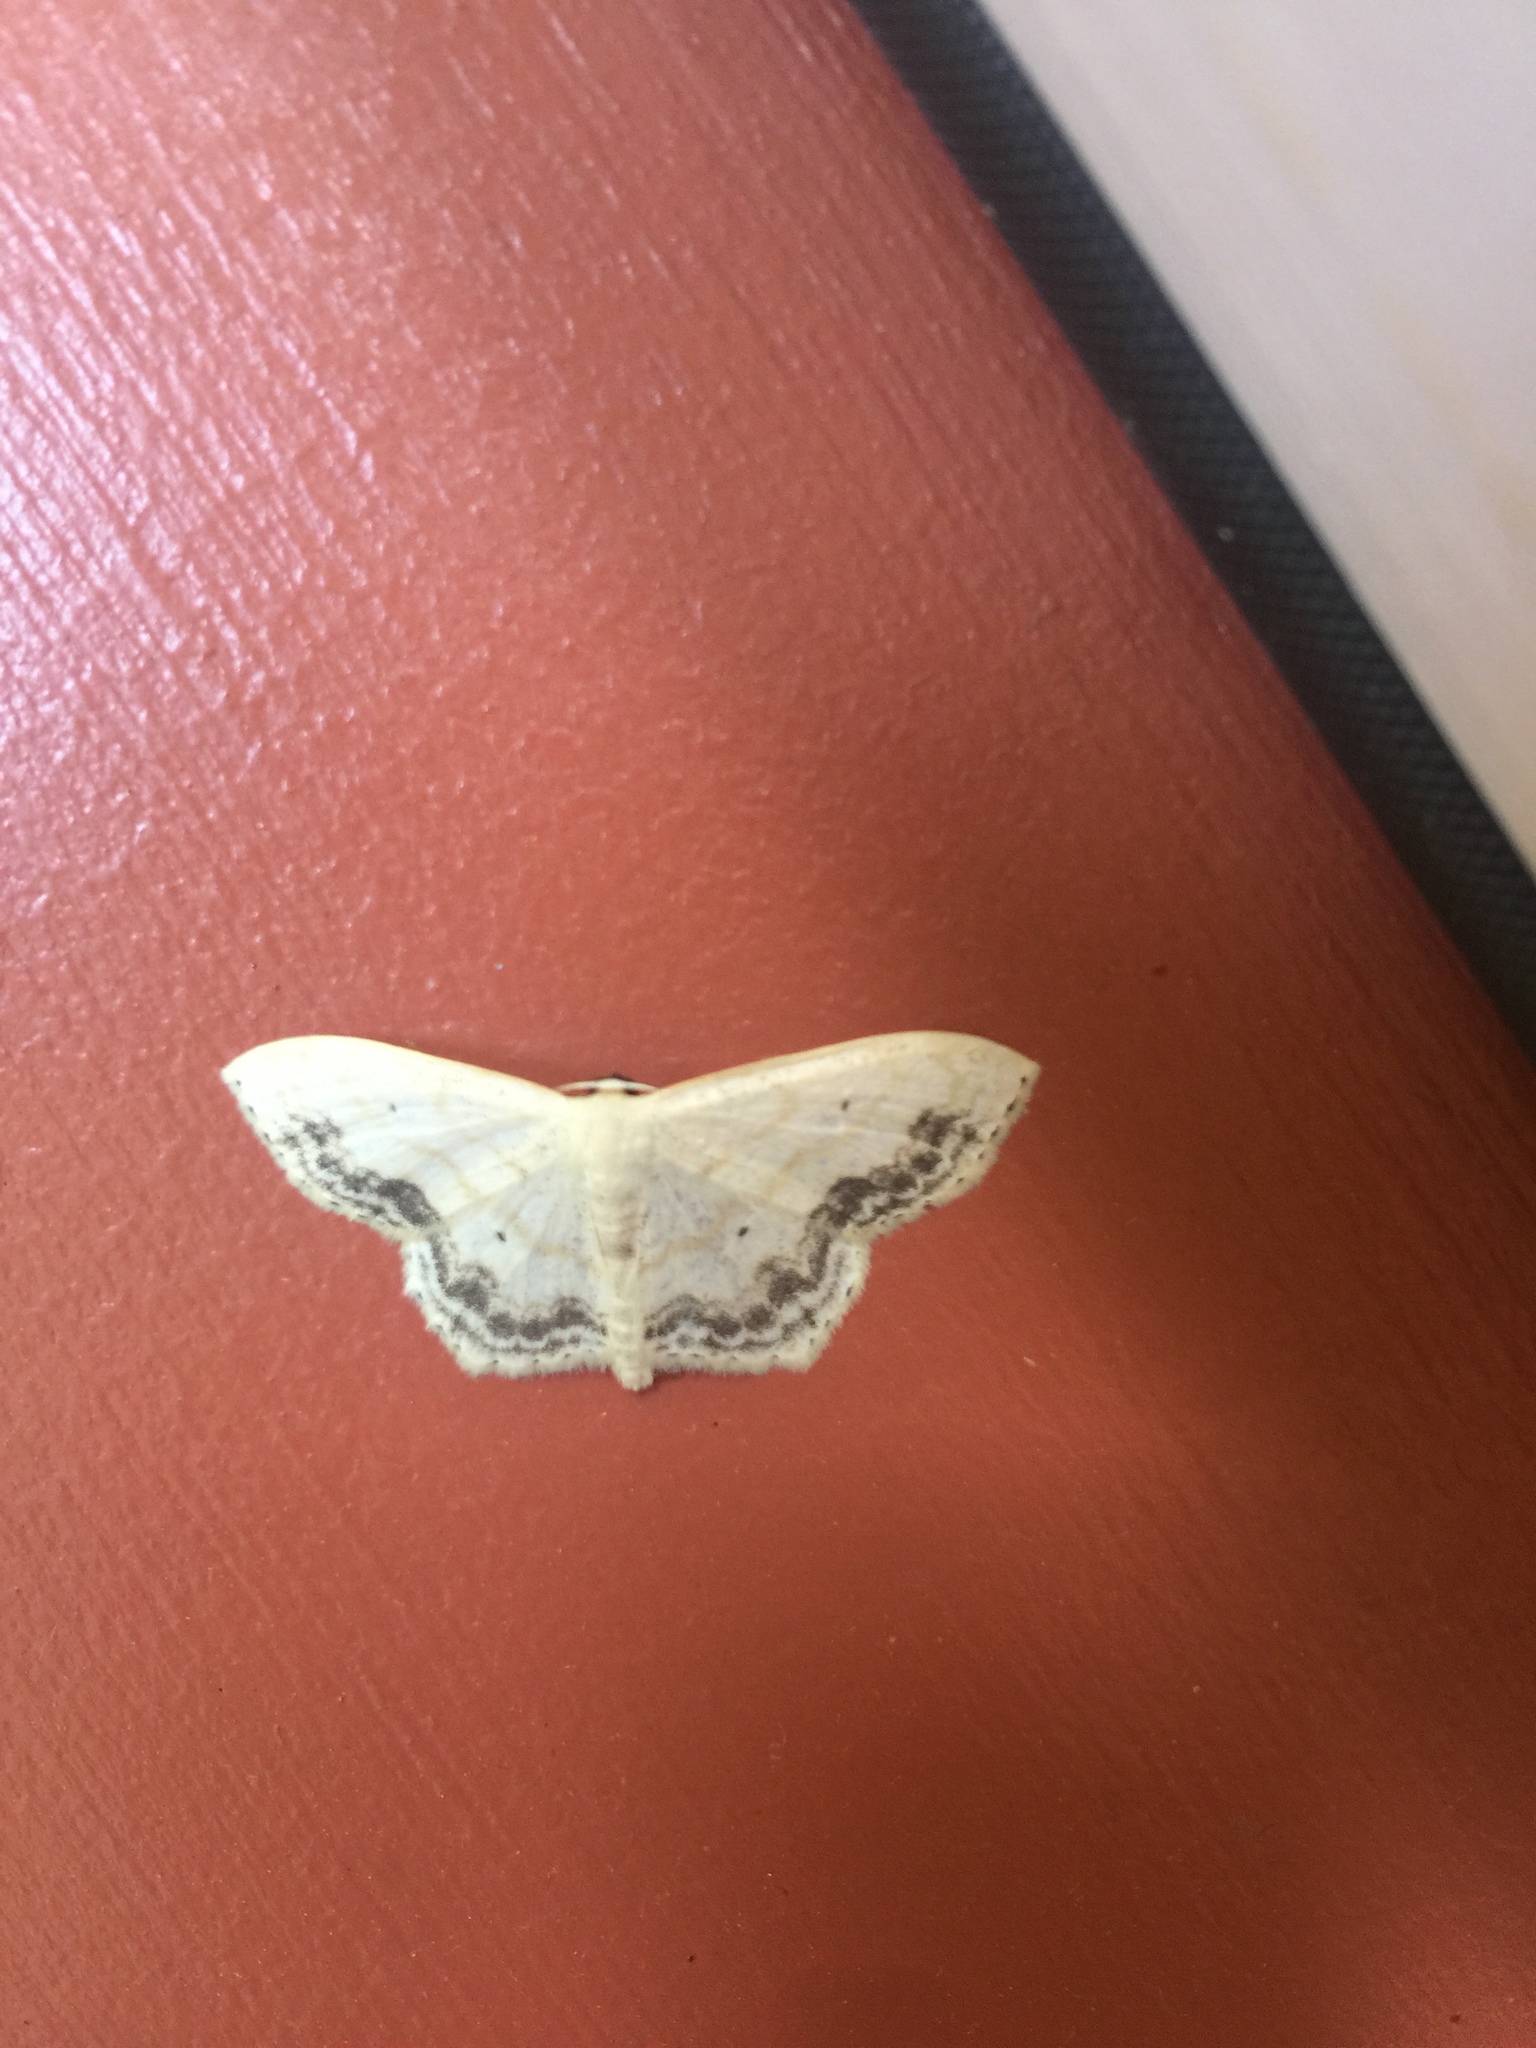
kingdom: Animalia
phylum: Arthropoda
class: Insecta
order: Lepidoptera
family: Geometridae
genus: Scopula
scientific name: Scopula limboundata
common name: Large lace border
